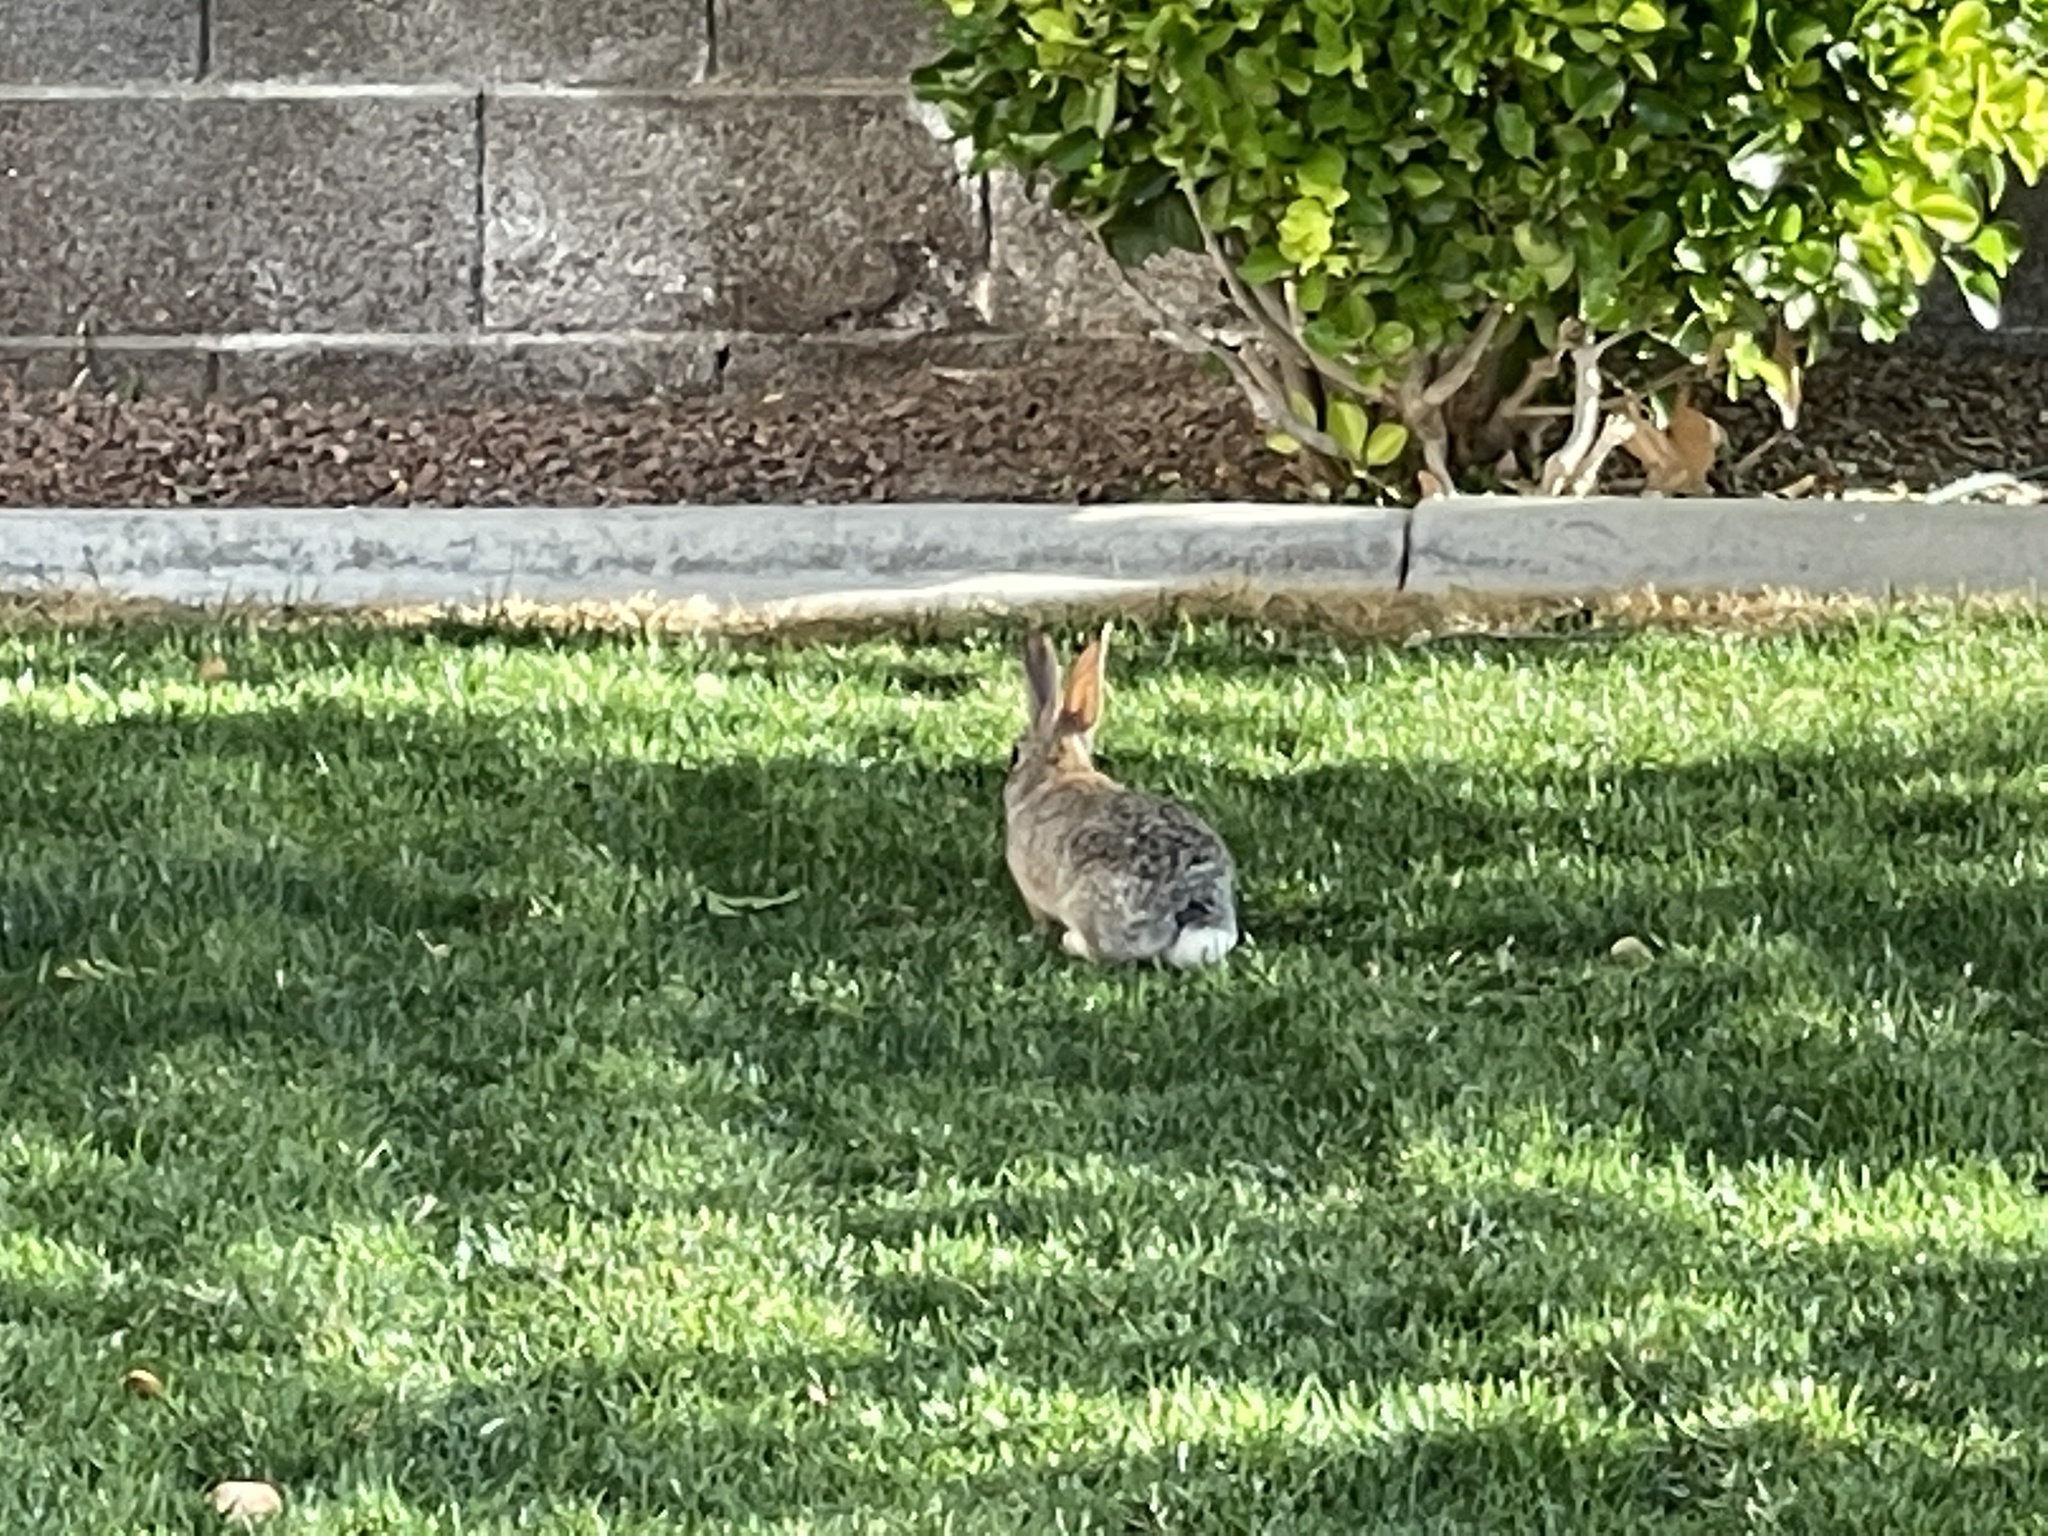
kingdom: Animalia
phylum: Chordata
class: Mammalia
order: Lagomorpha
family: Leporidae
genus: Sylvilagus
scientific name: Sylvilagus audubonii
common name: Desert cottontail
